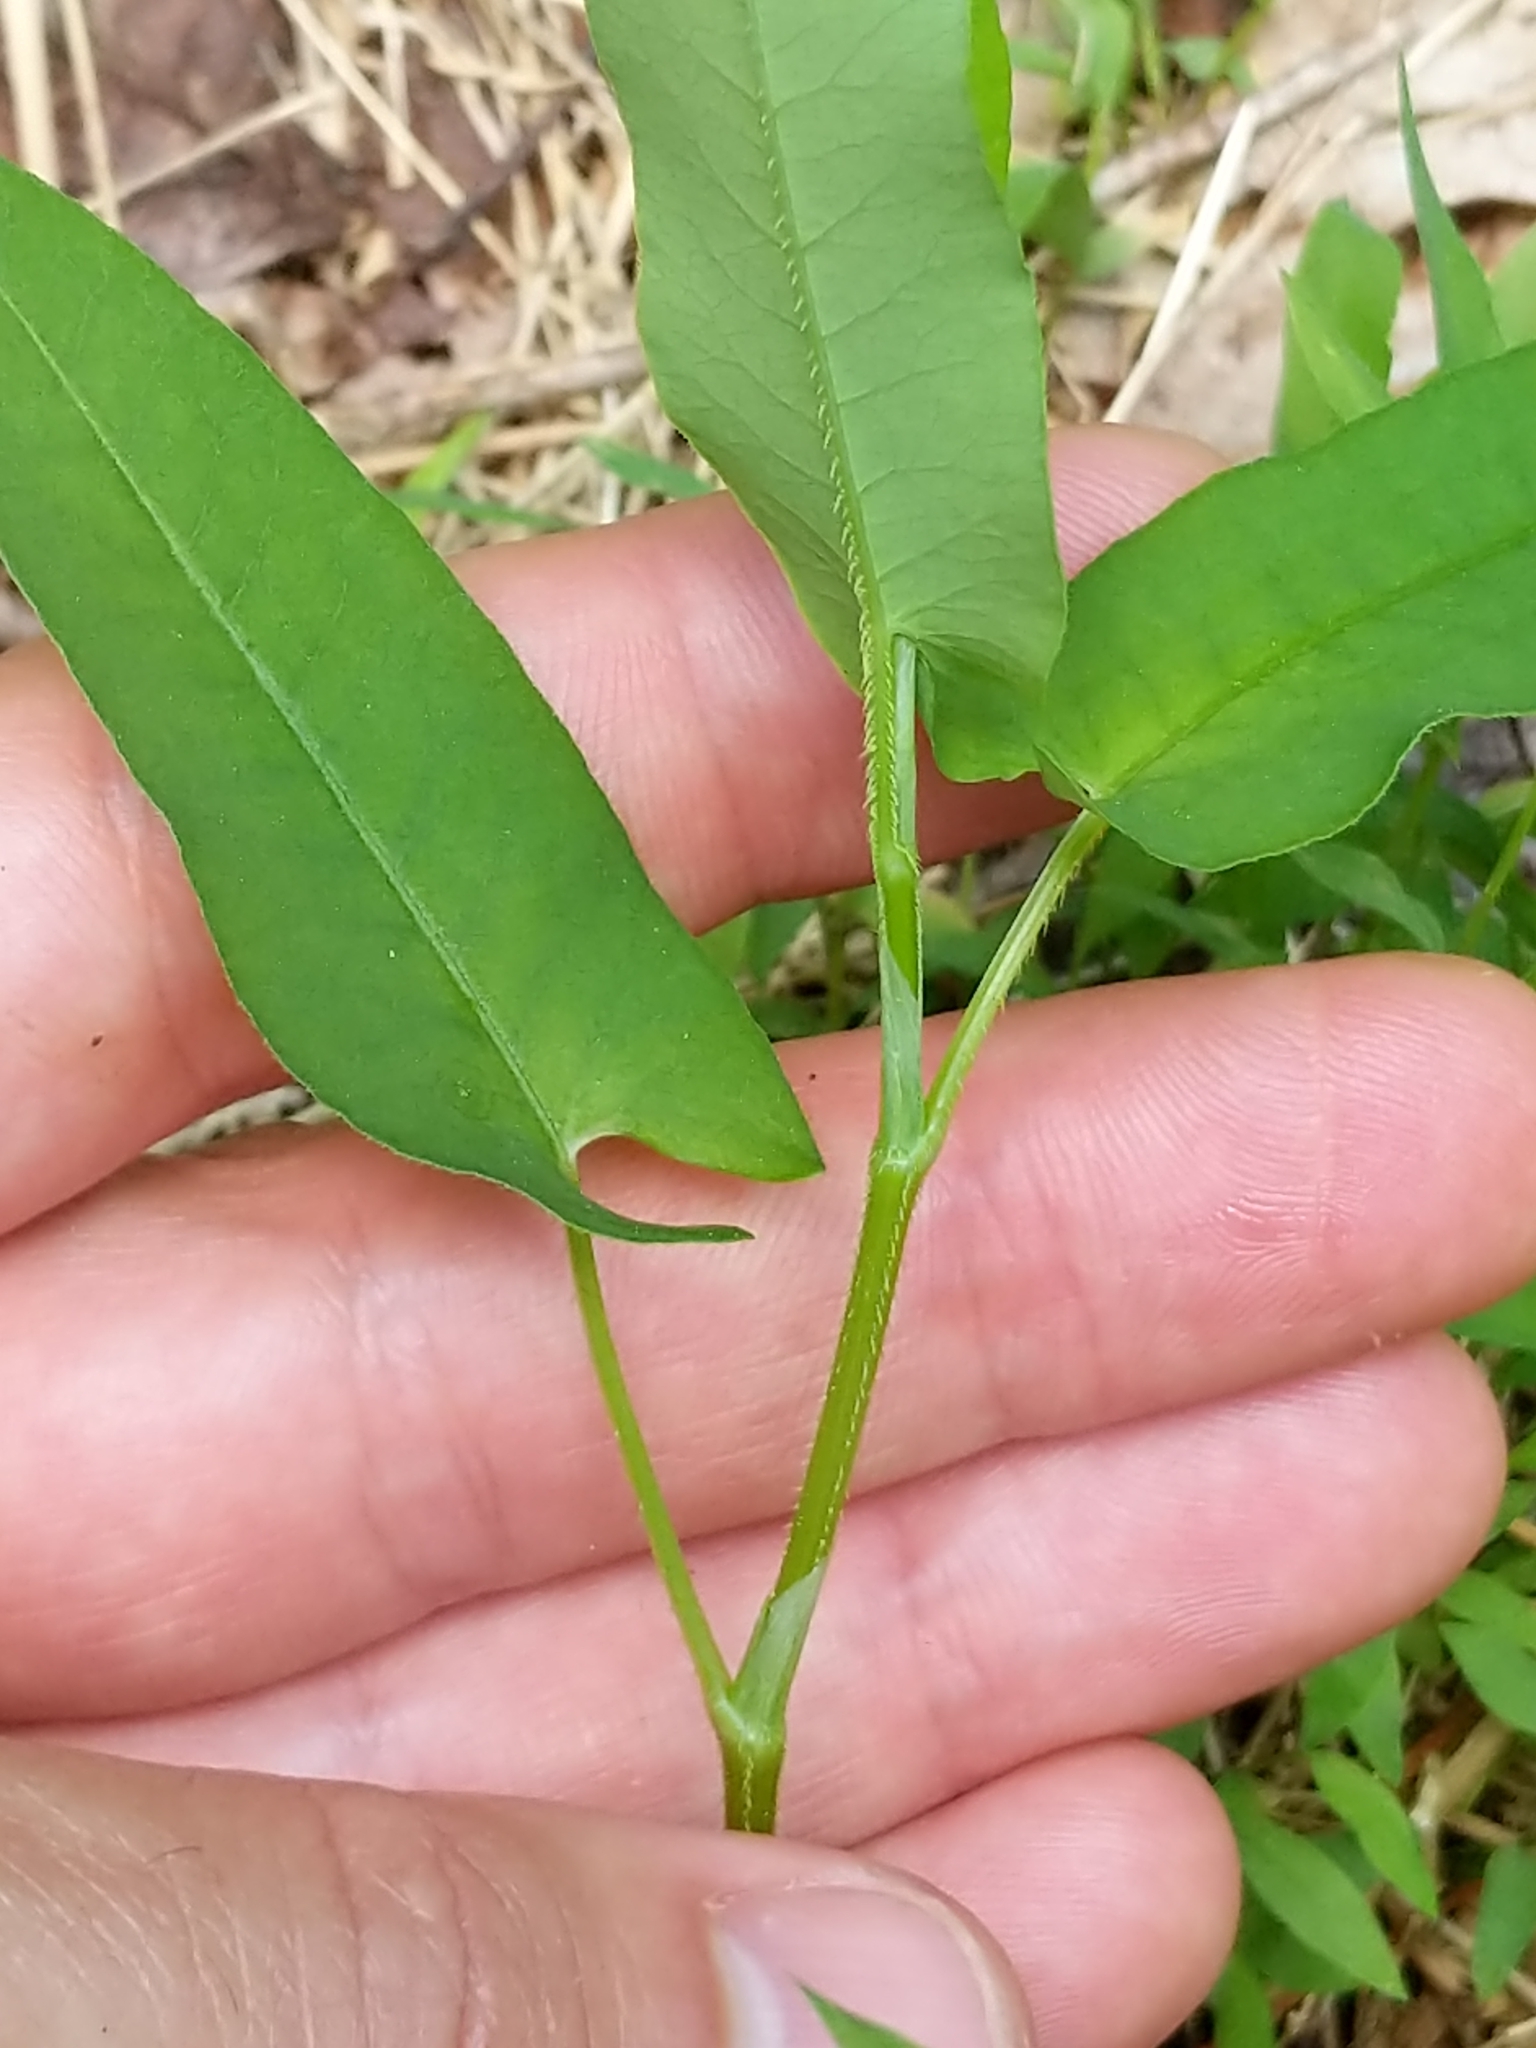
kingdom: Plantae
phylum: Tracheophyta
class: Magnoliopsida
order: Caryophyllales
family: Polygonaceae
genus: Persicaria
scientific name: Persicaria sagittata
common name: American tearthumb
